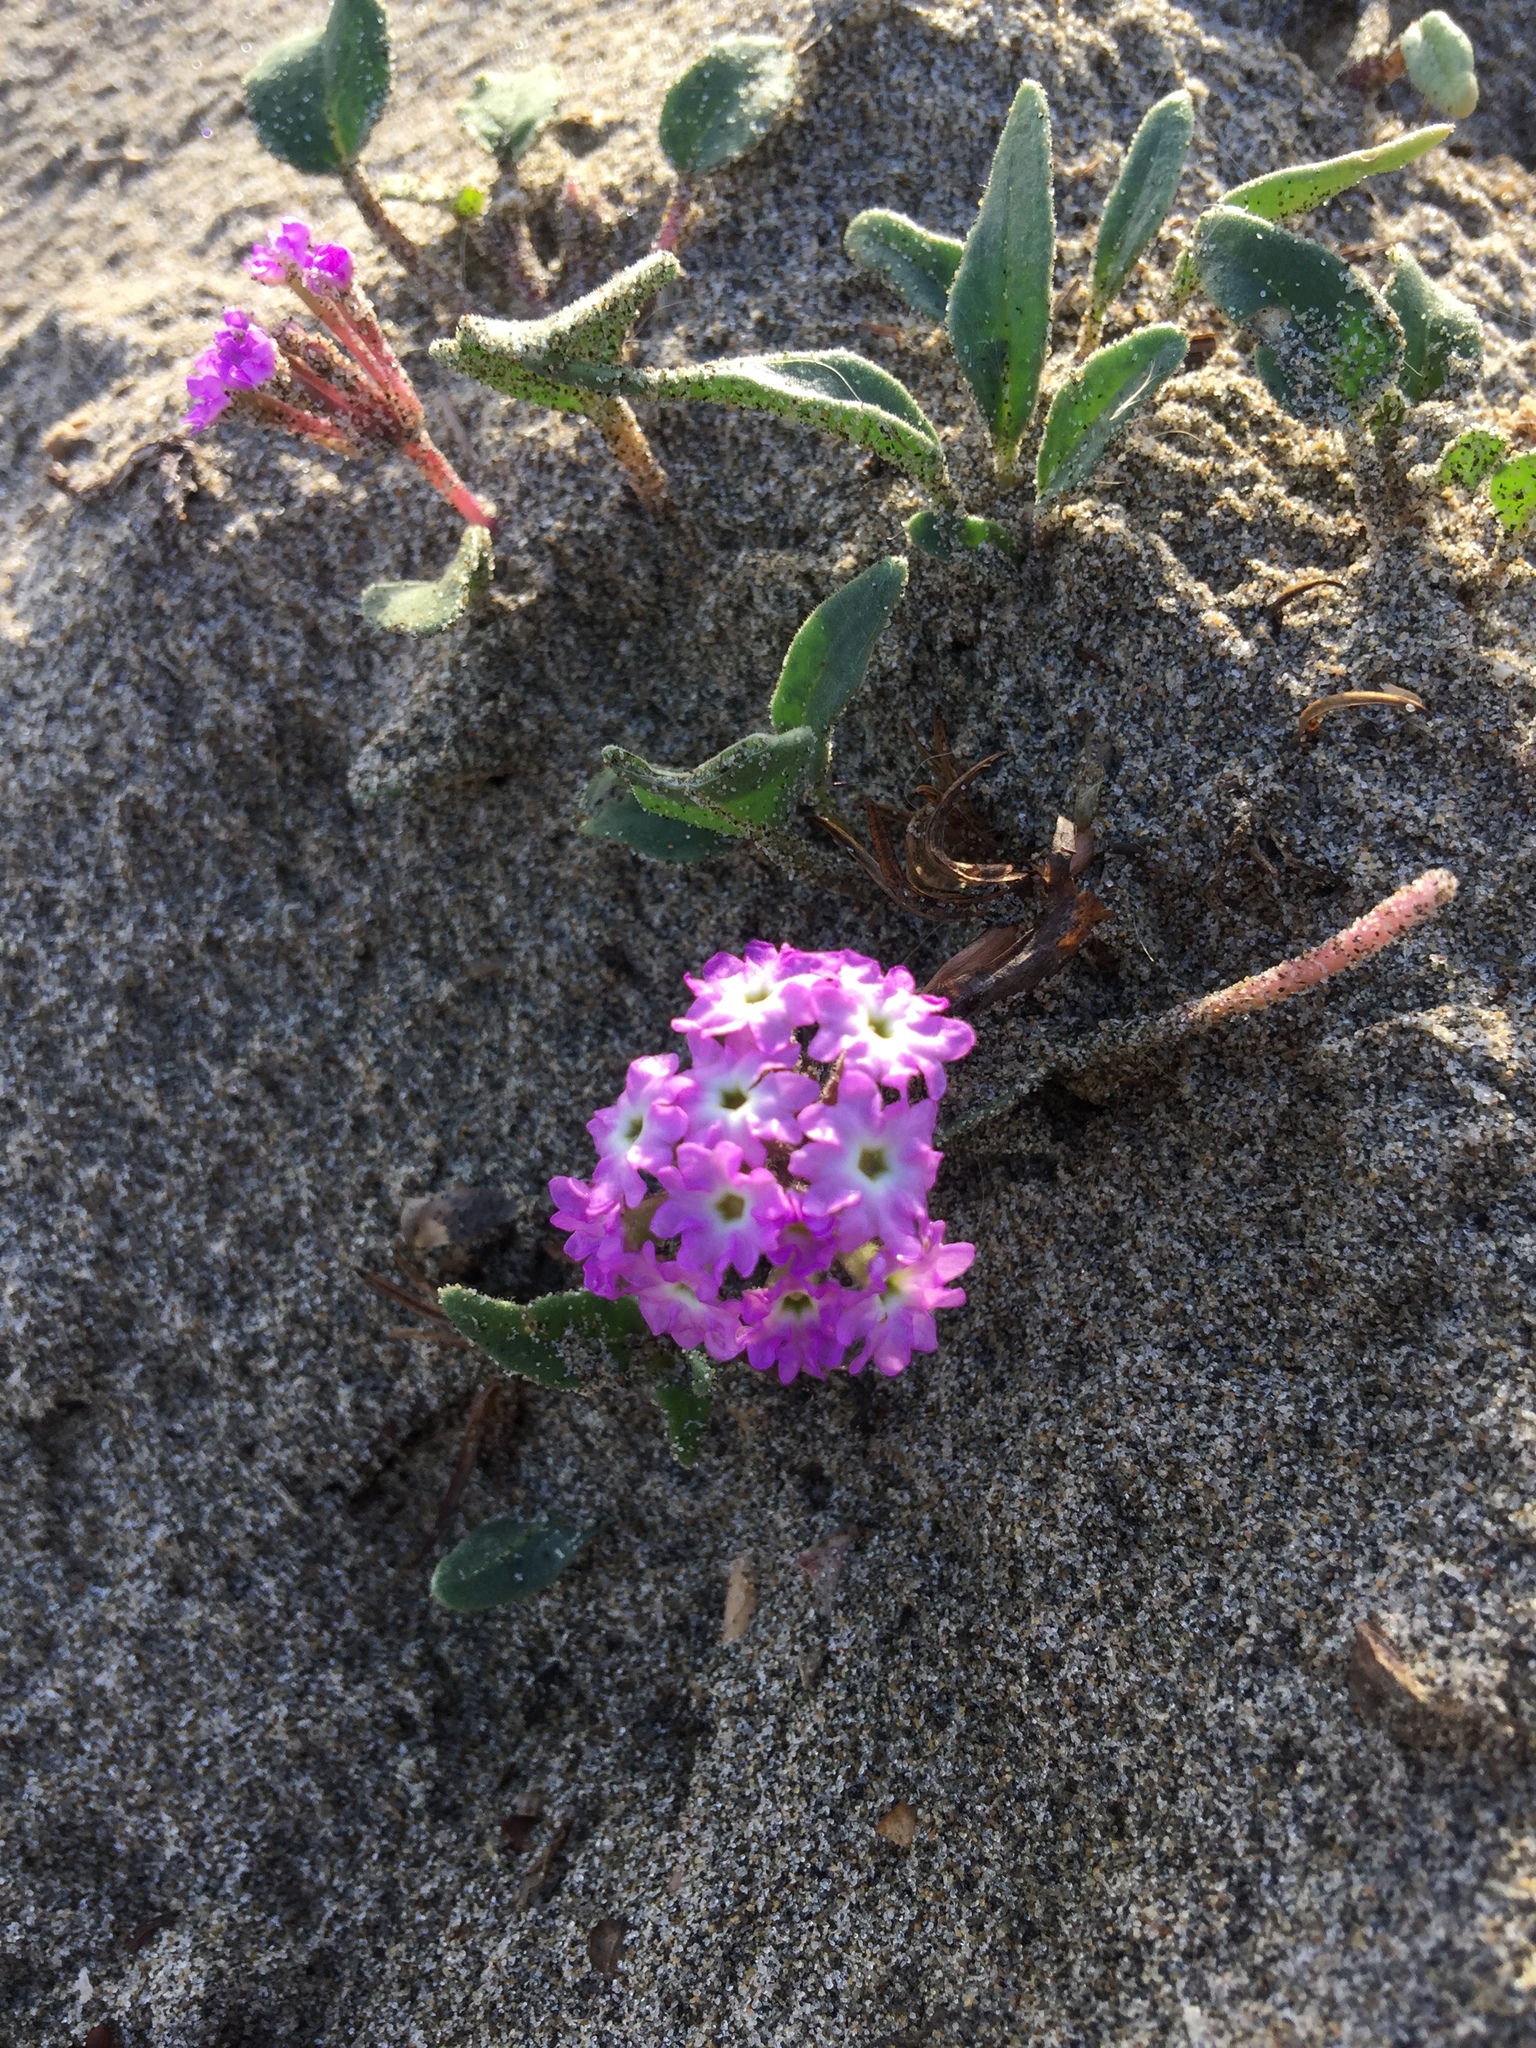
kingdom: Plantae
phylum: Tracheophyta
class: Magnoliopsida
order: Caryophyllales
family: Nyctaginaceae
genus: Abronia
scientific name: Abronia umbellata
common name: Sand-verbena
